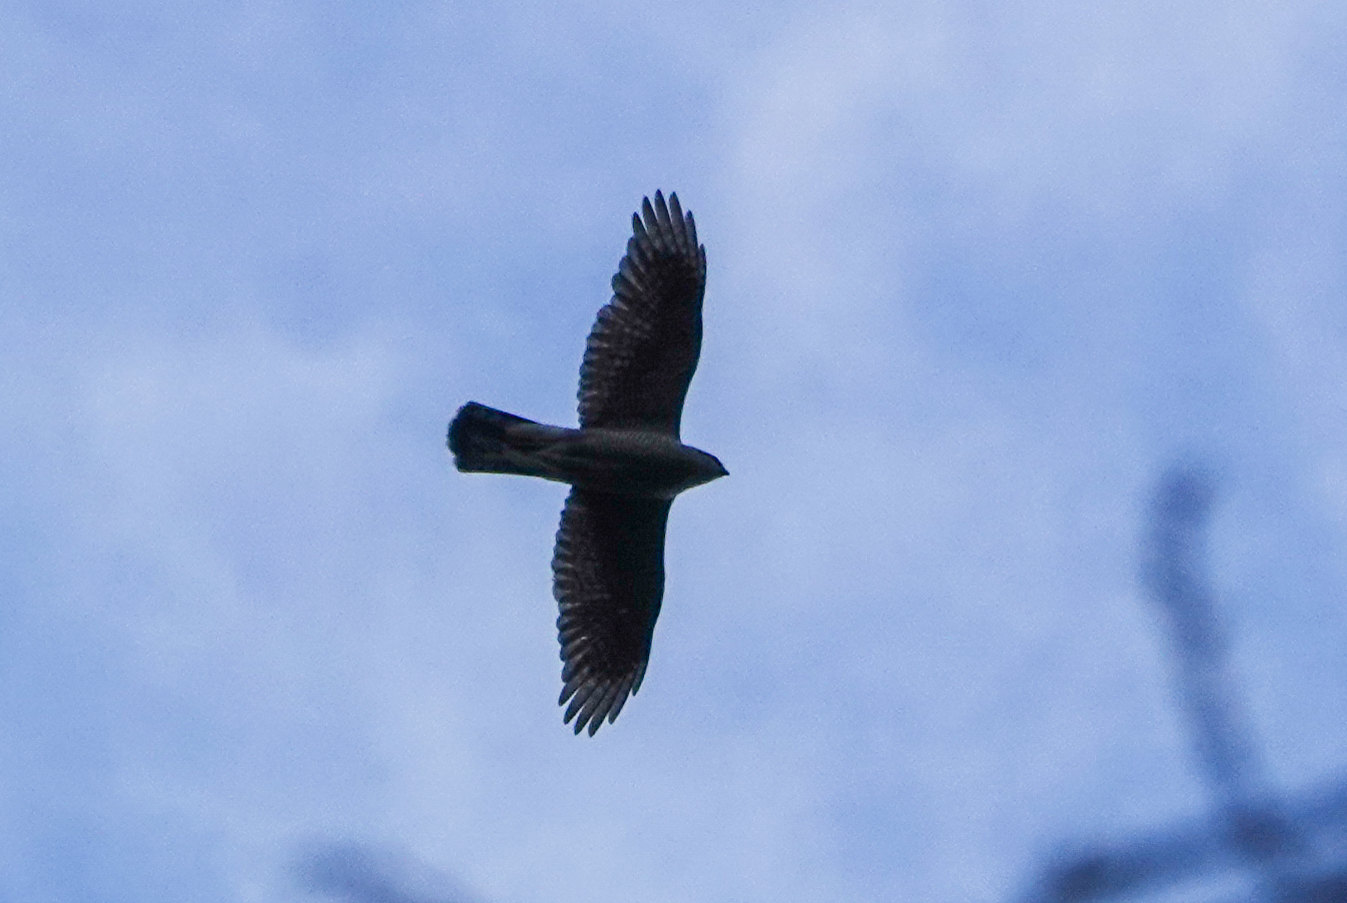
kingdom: Animalia
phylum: Chordata
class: Aves
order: Accipitriformes
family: Accipitridae
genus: Accipiter
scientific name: Accipiter gentilis
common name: Northern goshawk
